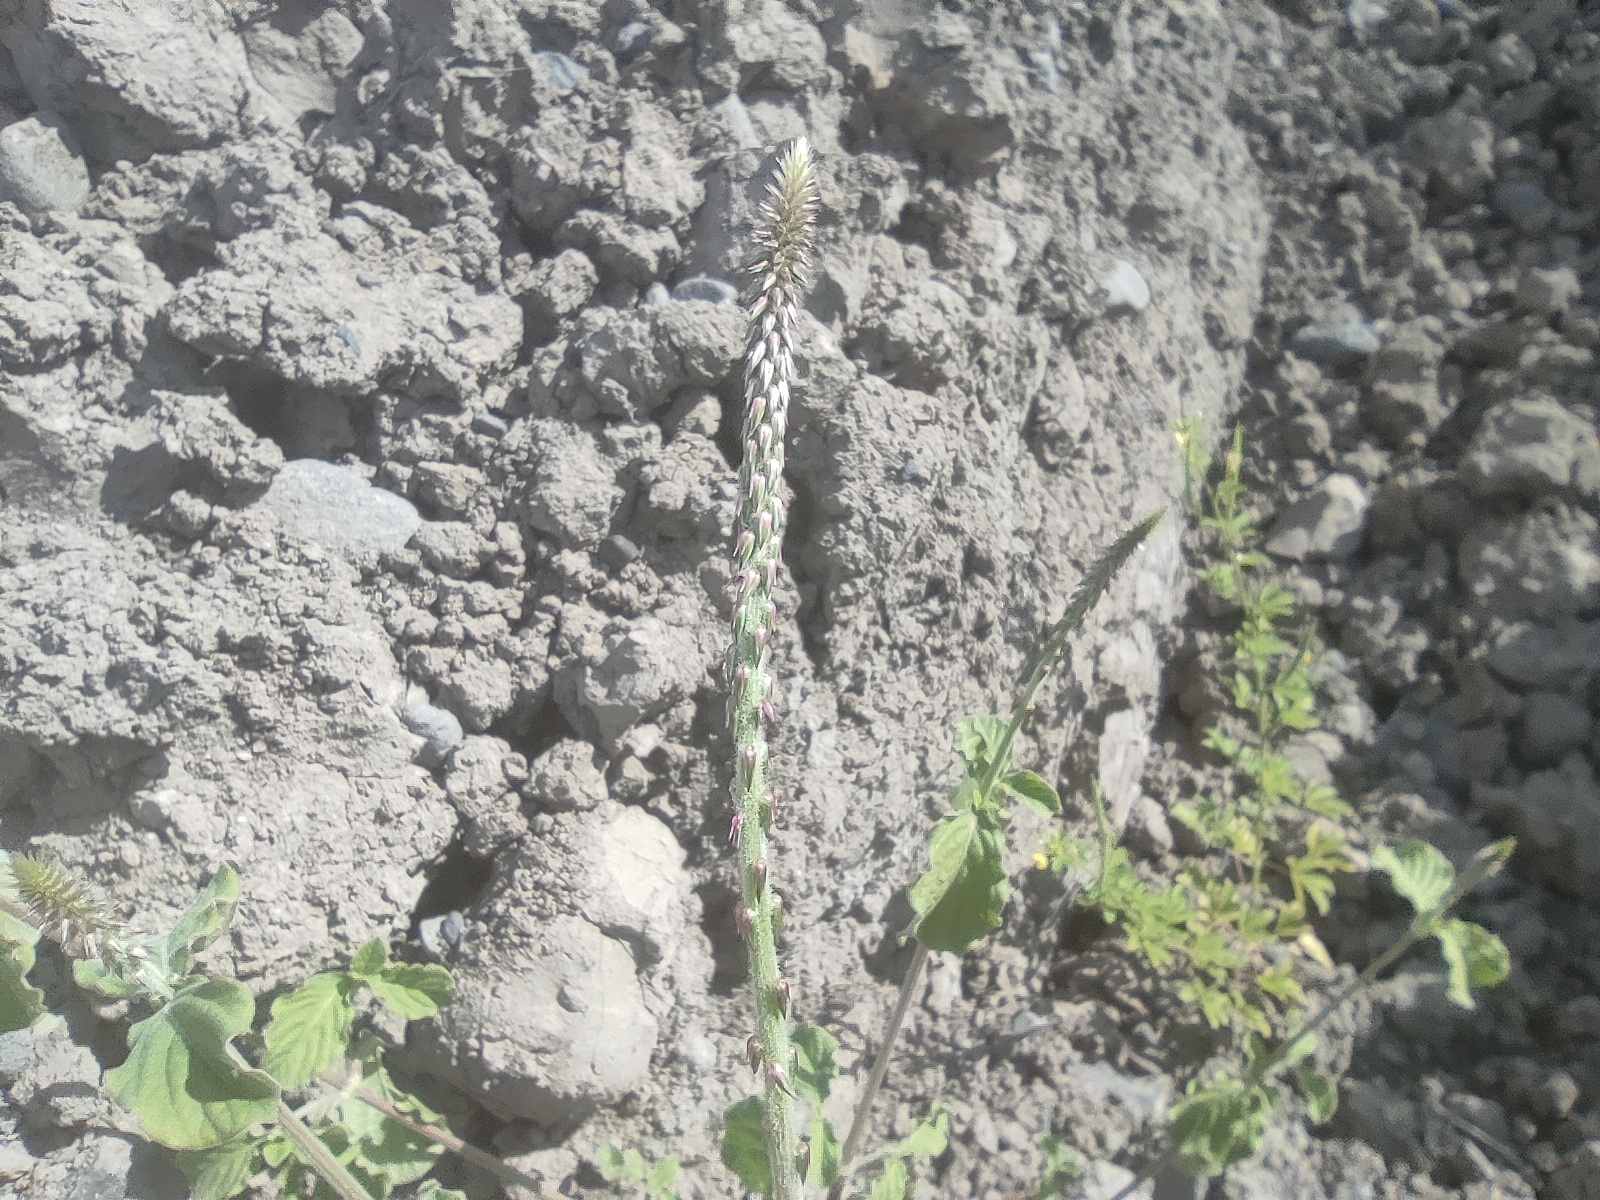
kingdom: Plantae
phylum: Tracheophyta
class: Magnoliopsida
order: Caryophyllales
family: Amaranthaceae
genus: Achyranthes
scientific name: Achyranthes aspera
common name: Devil's horsewhip
